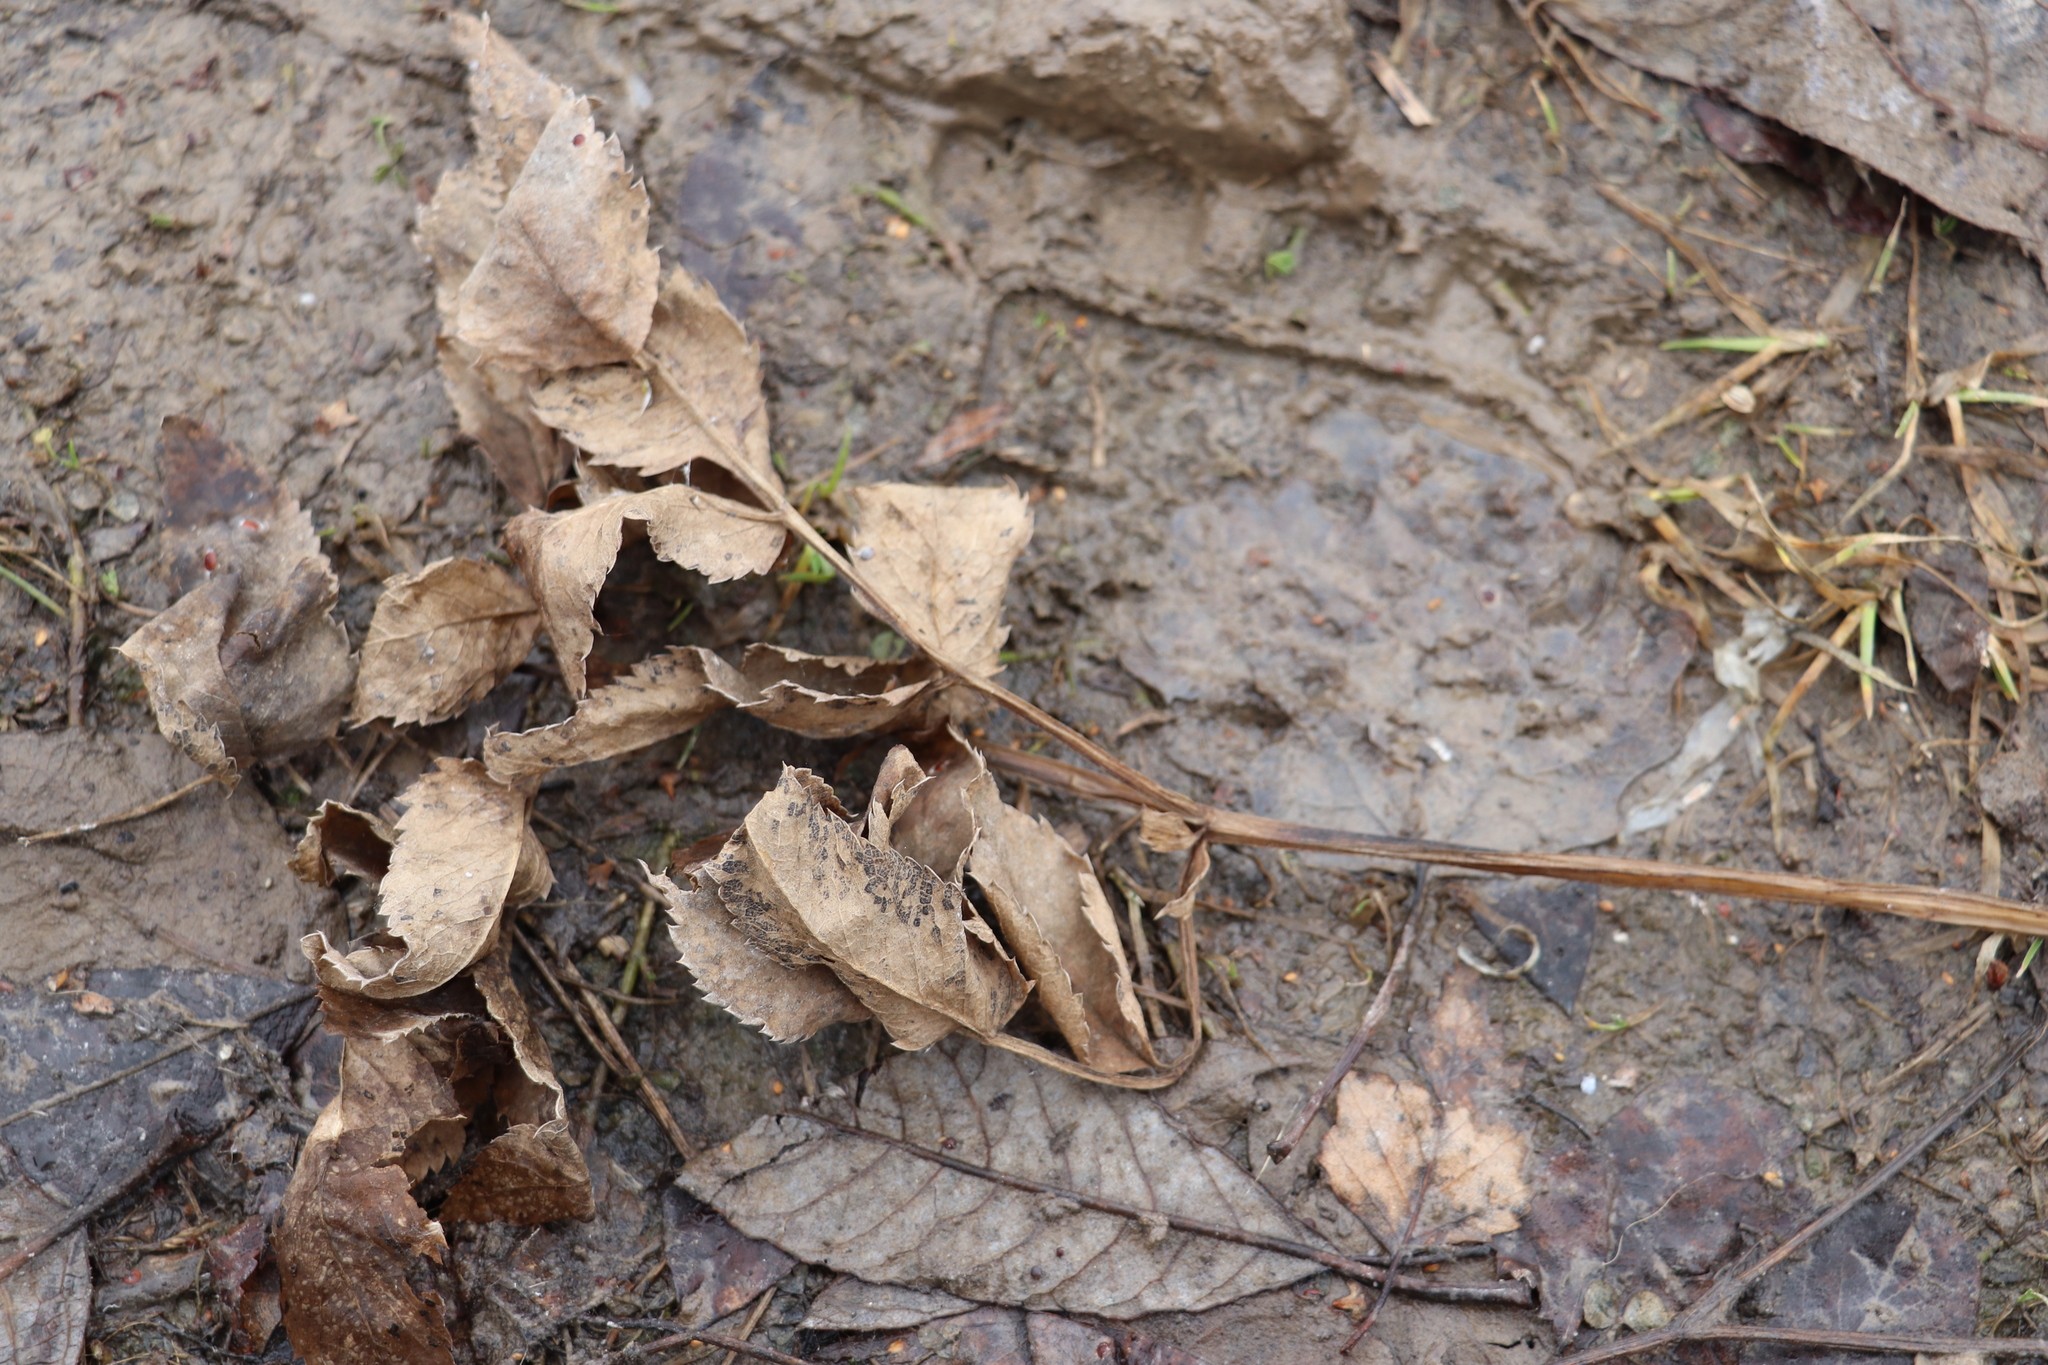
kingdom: Plantae
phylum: Tracheophyta
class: Magnoliopsida
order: Apiales
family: Apiaceae
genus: Angelica
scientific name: Angelica sylvestris
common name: Wild angelica
